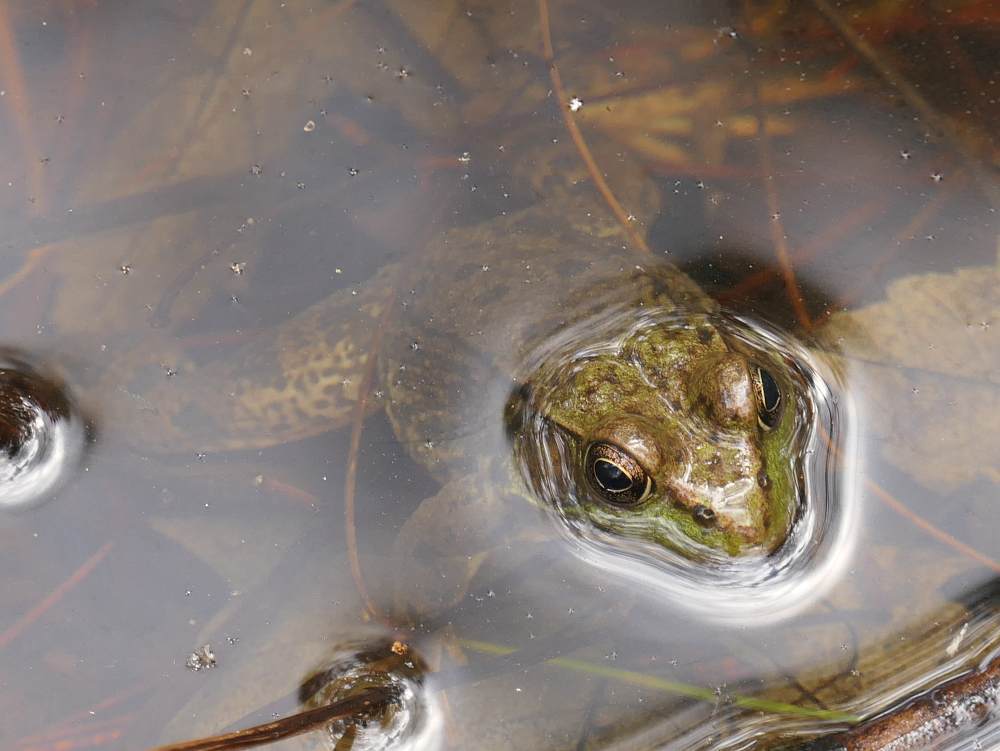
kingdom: Animalia
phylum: Chordata
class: Amphibia
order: Anura
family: Ranidae
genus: Lithobates
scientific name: Lithobates clamitans
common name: Green frog
